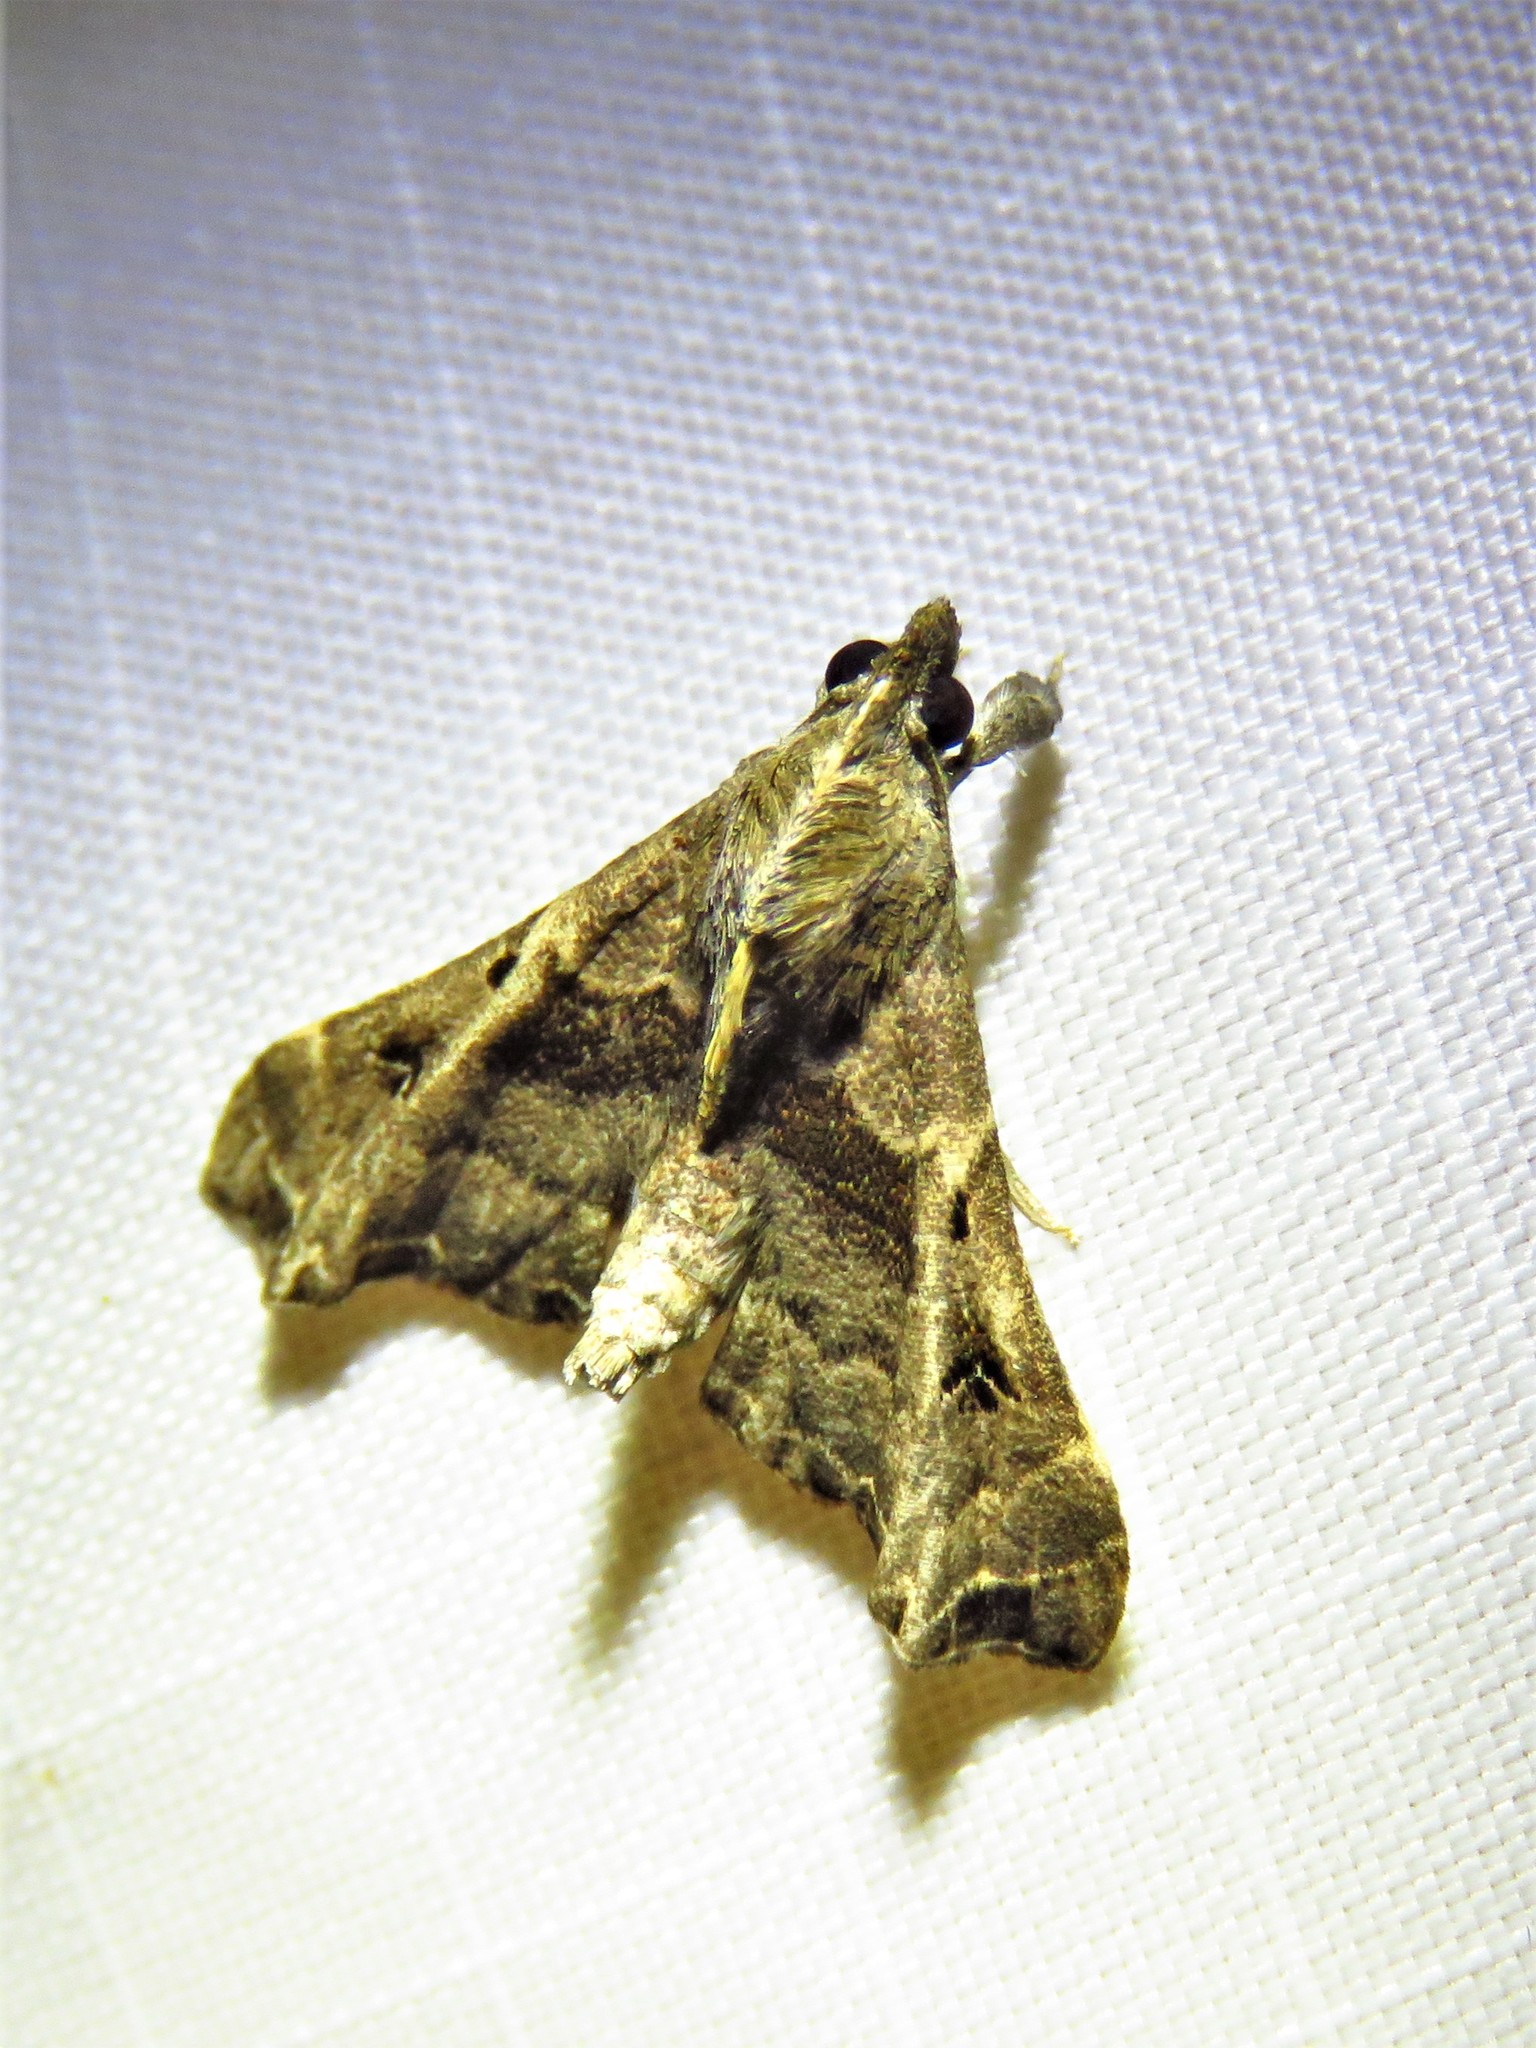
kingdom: Animalia
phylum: Arthropoda
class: Insecta
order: Lepidoptera
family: Erebidae
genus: Palthis
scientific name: Palthis asopialis
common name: Faint-spotted palthis moth
